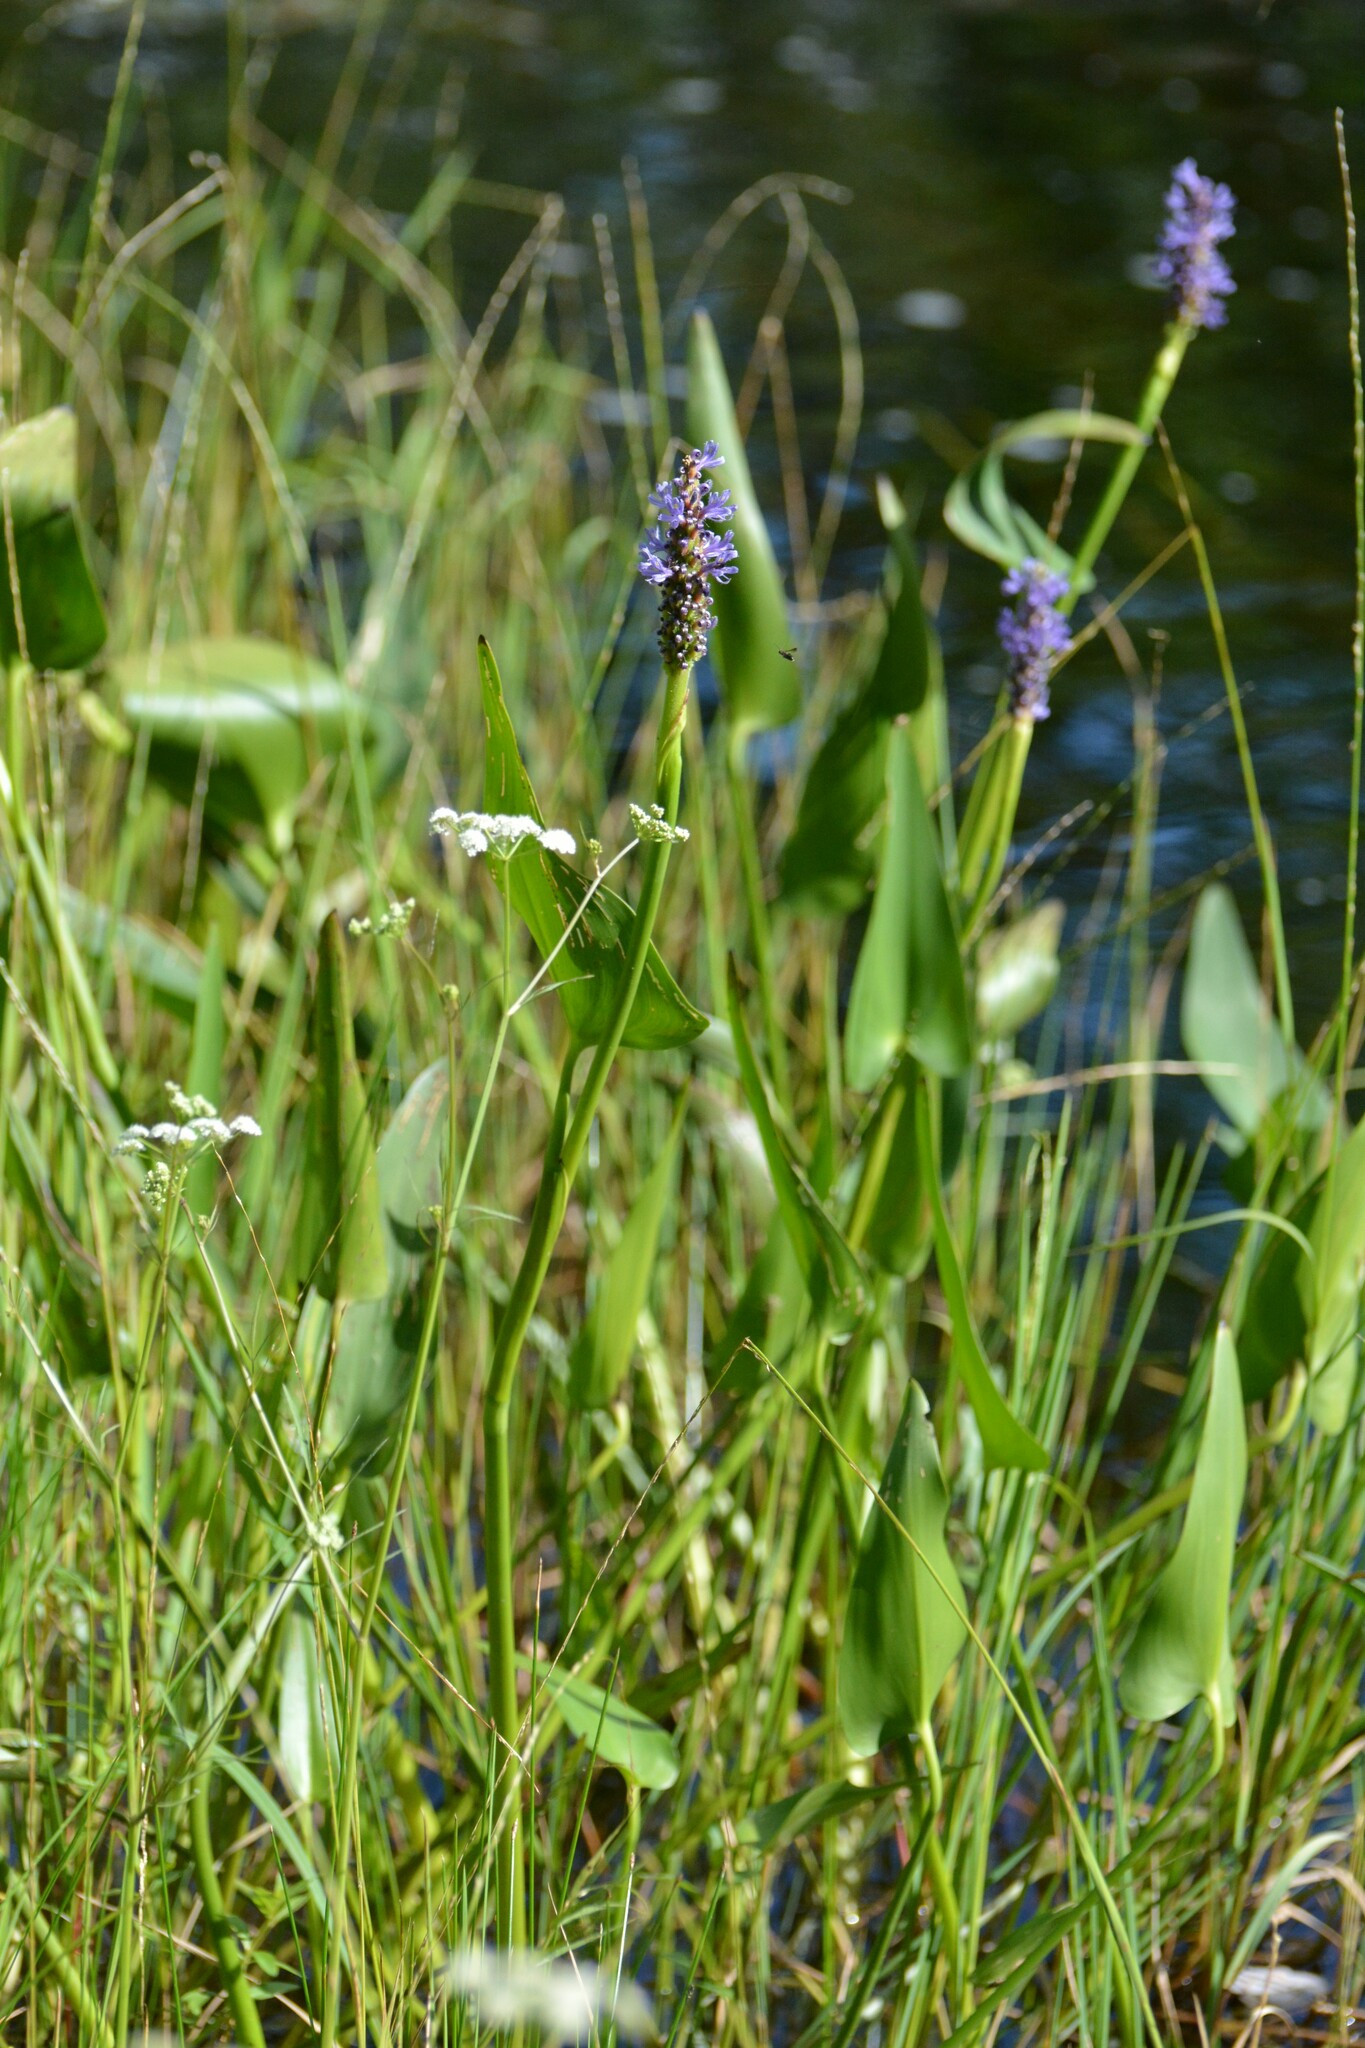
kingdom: Plantae
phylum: Tracheophyta
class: Liliopsida
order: Commelinales
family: Pontederiaceae
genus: Pontederia
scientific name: Pontederia cordata
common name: Pickerelweed
